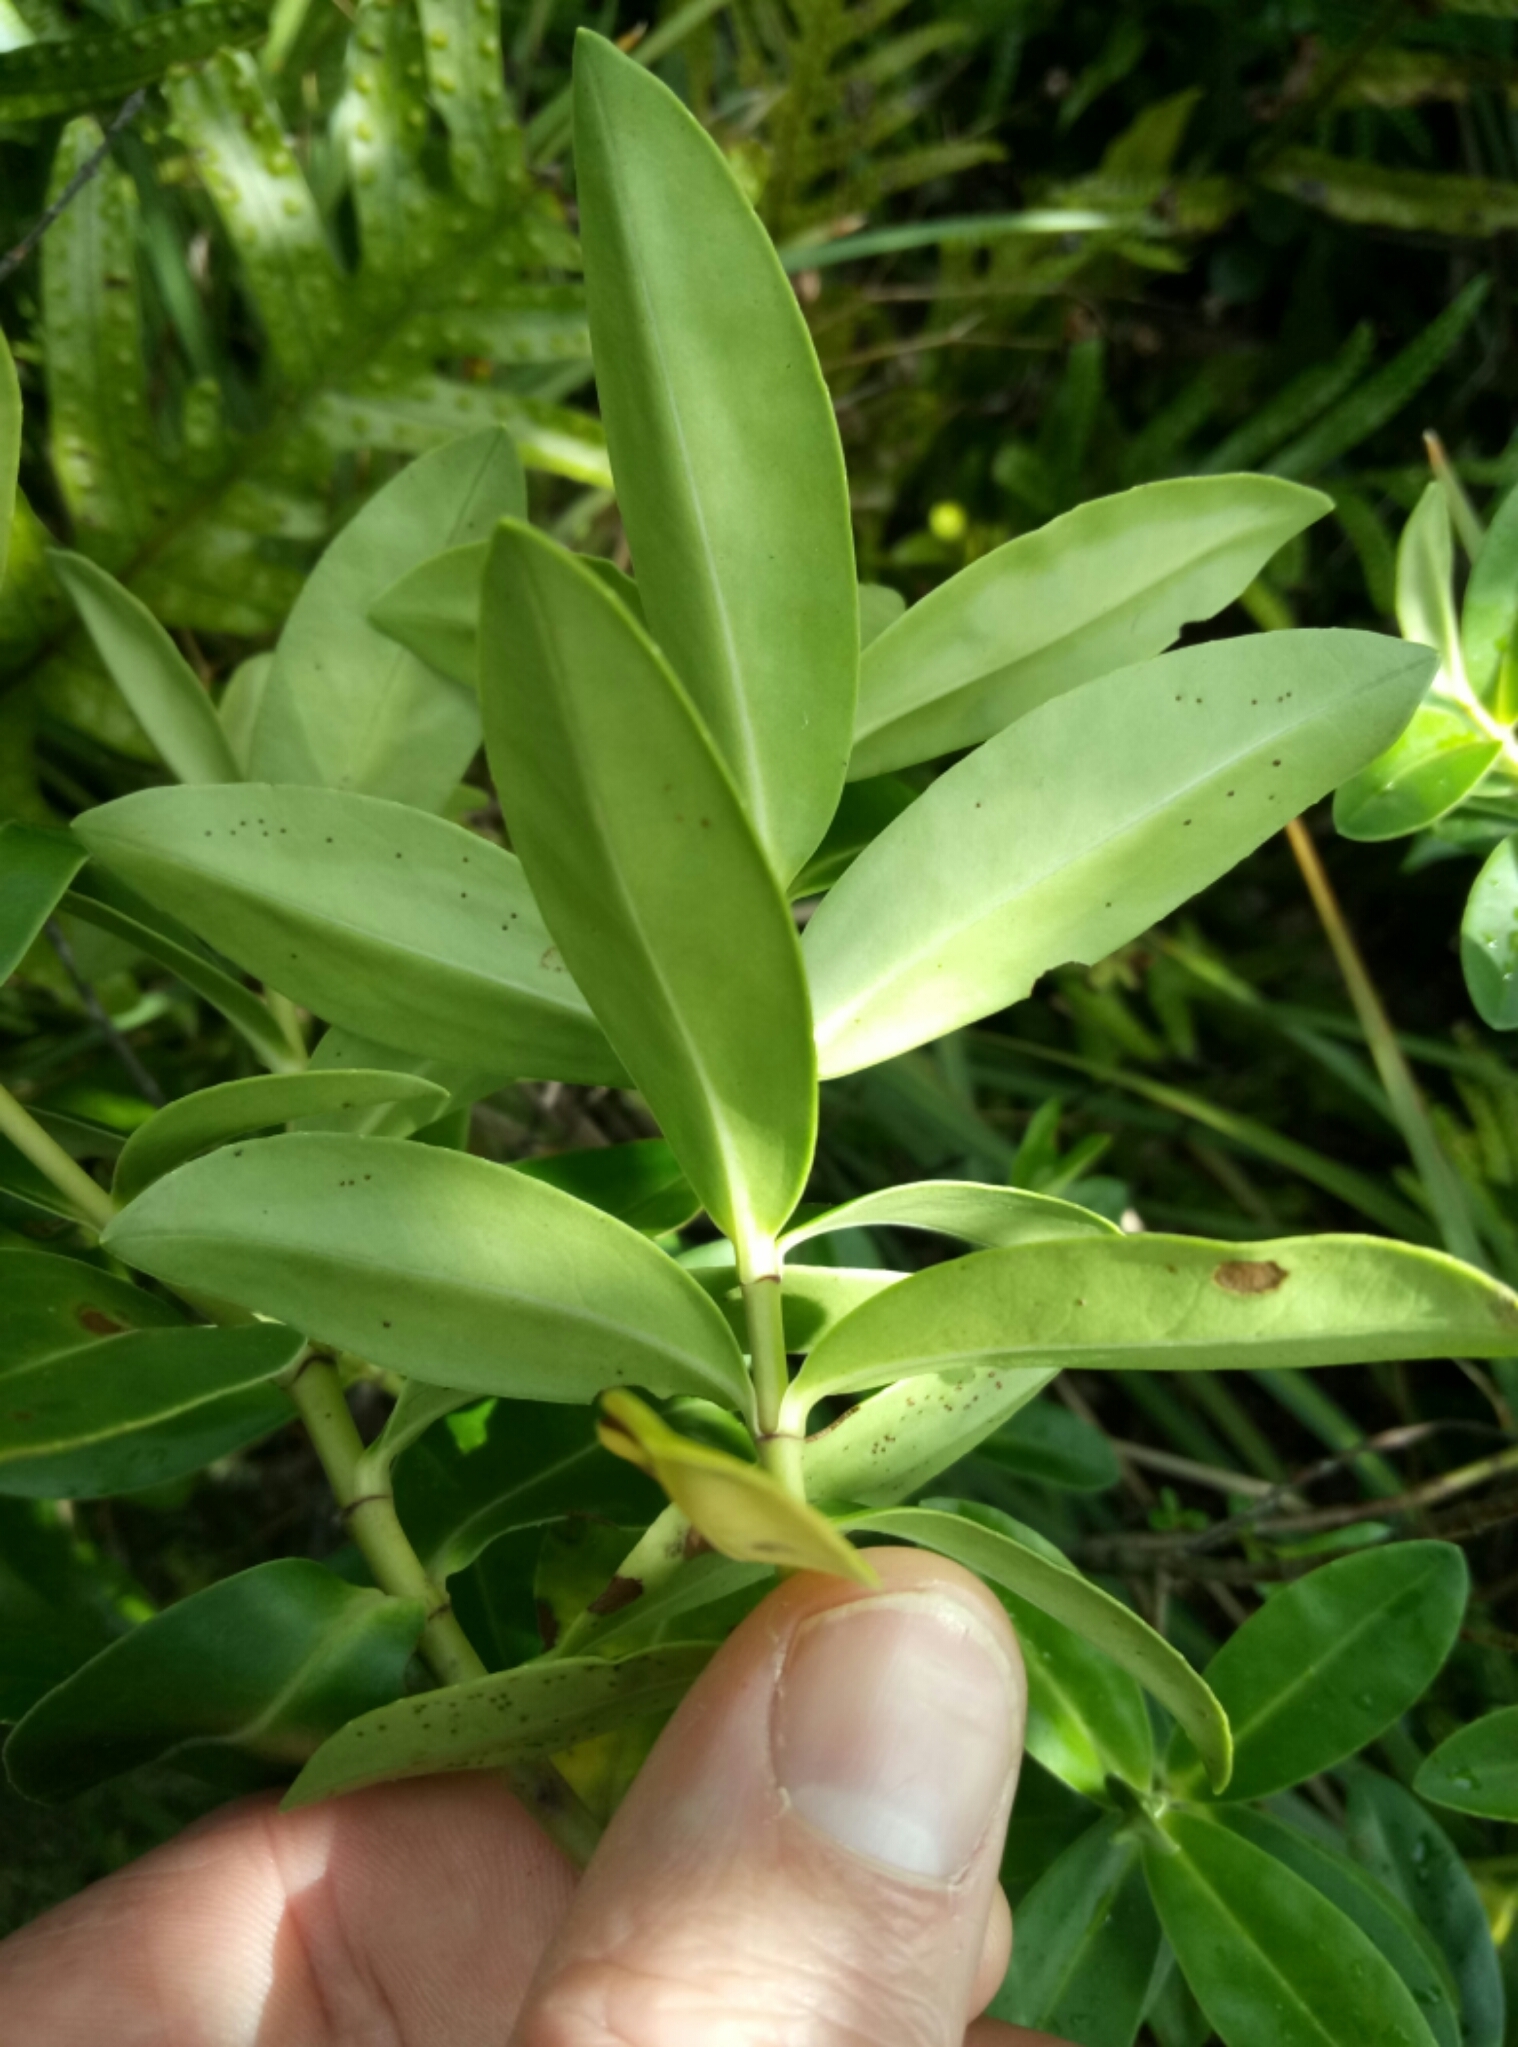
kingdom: Plantae
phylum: Tracheophyta
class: Magnoliopsida
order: Lamiales
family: Plantaginaceae
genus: Veronica
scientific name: Veronica stricta
